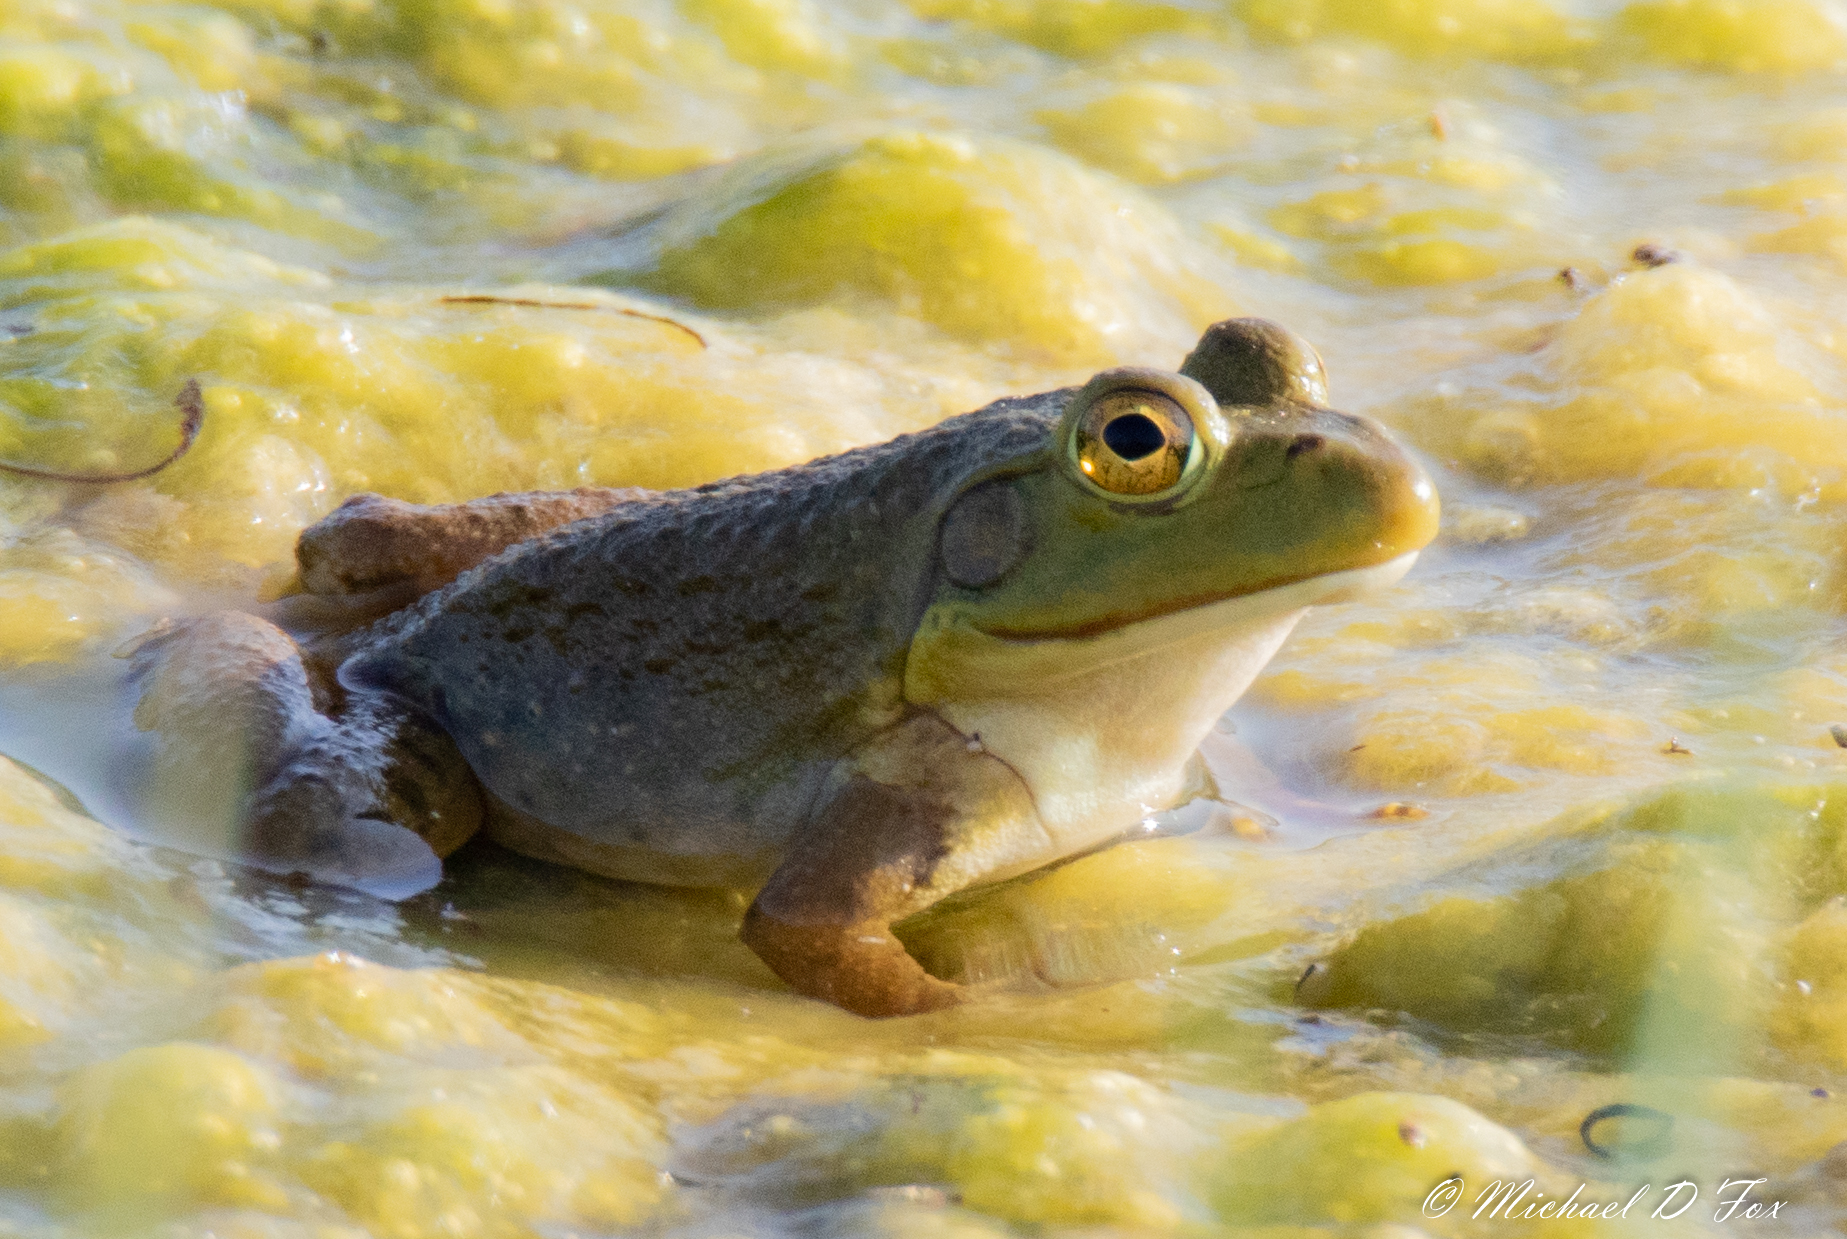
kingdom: Animalia
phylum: Chordata
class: Amphibia
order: Anura
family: Ranidae
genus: Lithobates
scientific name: Lithobates catesbeianus
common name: American bullfrog
